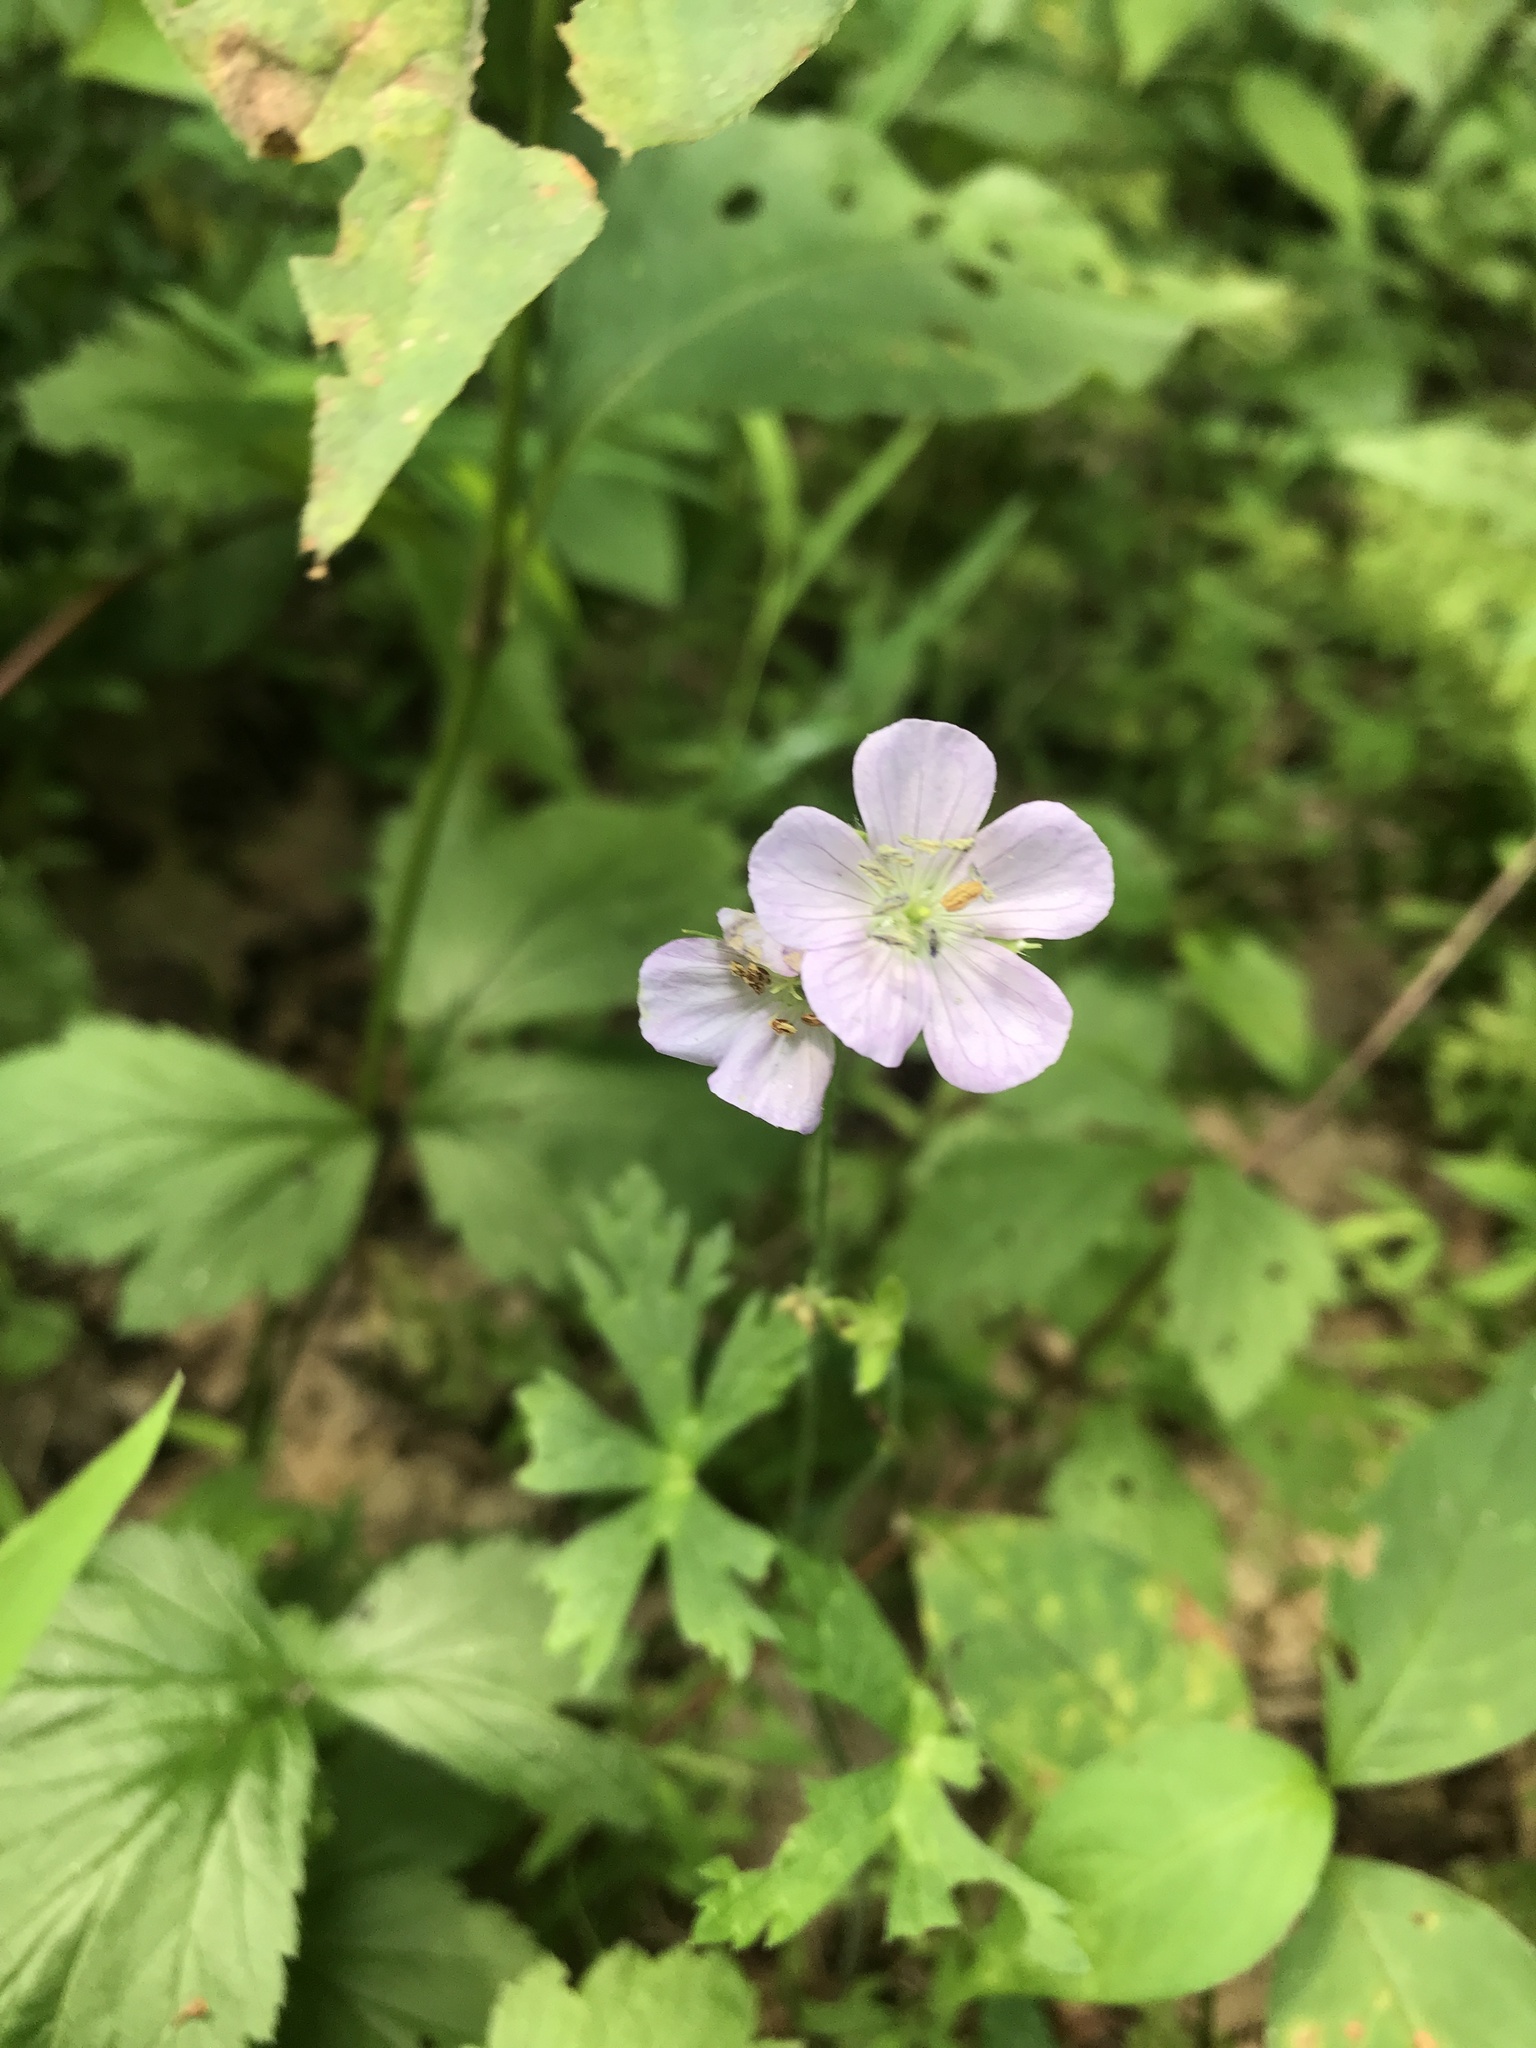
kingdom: Plantae
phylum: Tracheophyta
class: Magnoliopsida
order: Geraniales
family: Geraniaceae
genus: Geranium
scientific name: Geranium maculatum
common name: Spotted geranium
